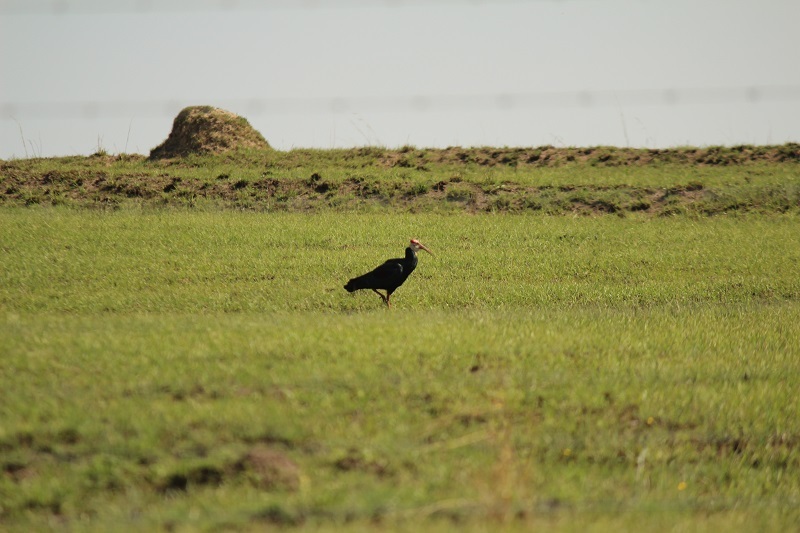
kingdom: Animalia
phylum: Chordata
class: Aves
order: Pelecaniformes
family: Threskiornithidae
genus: Geronticus
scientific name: Geronticus calvus
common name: Southern bald ibis
